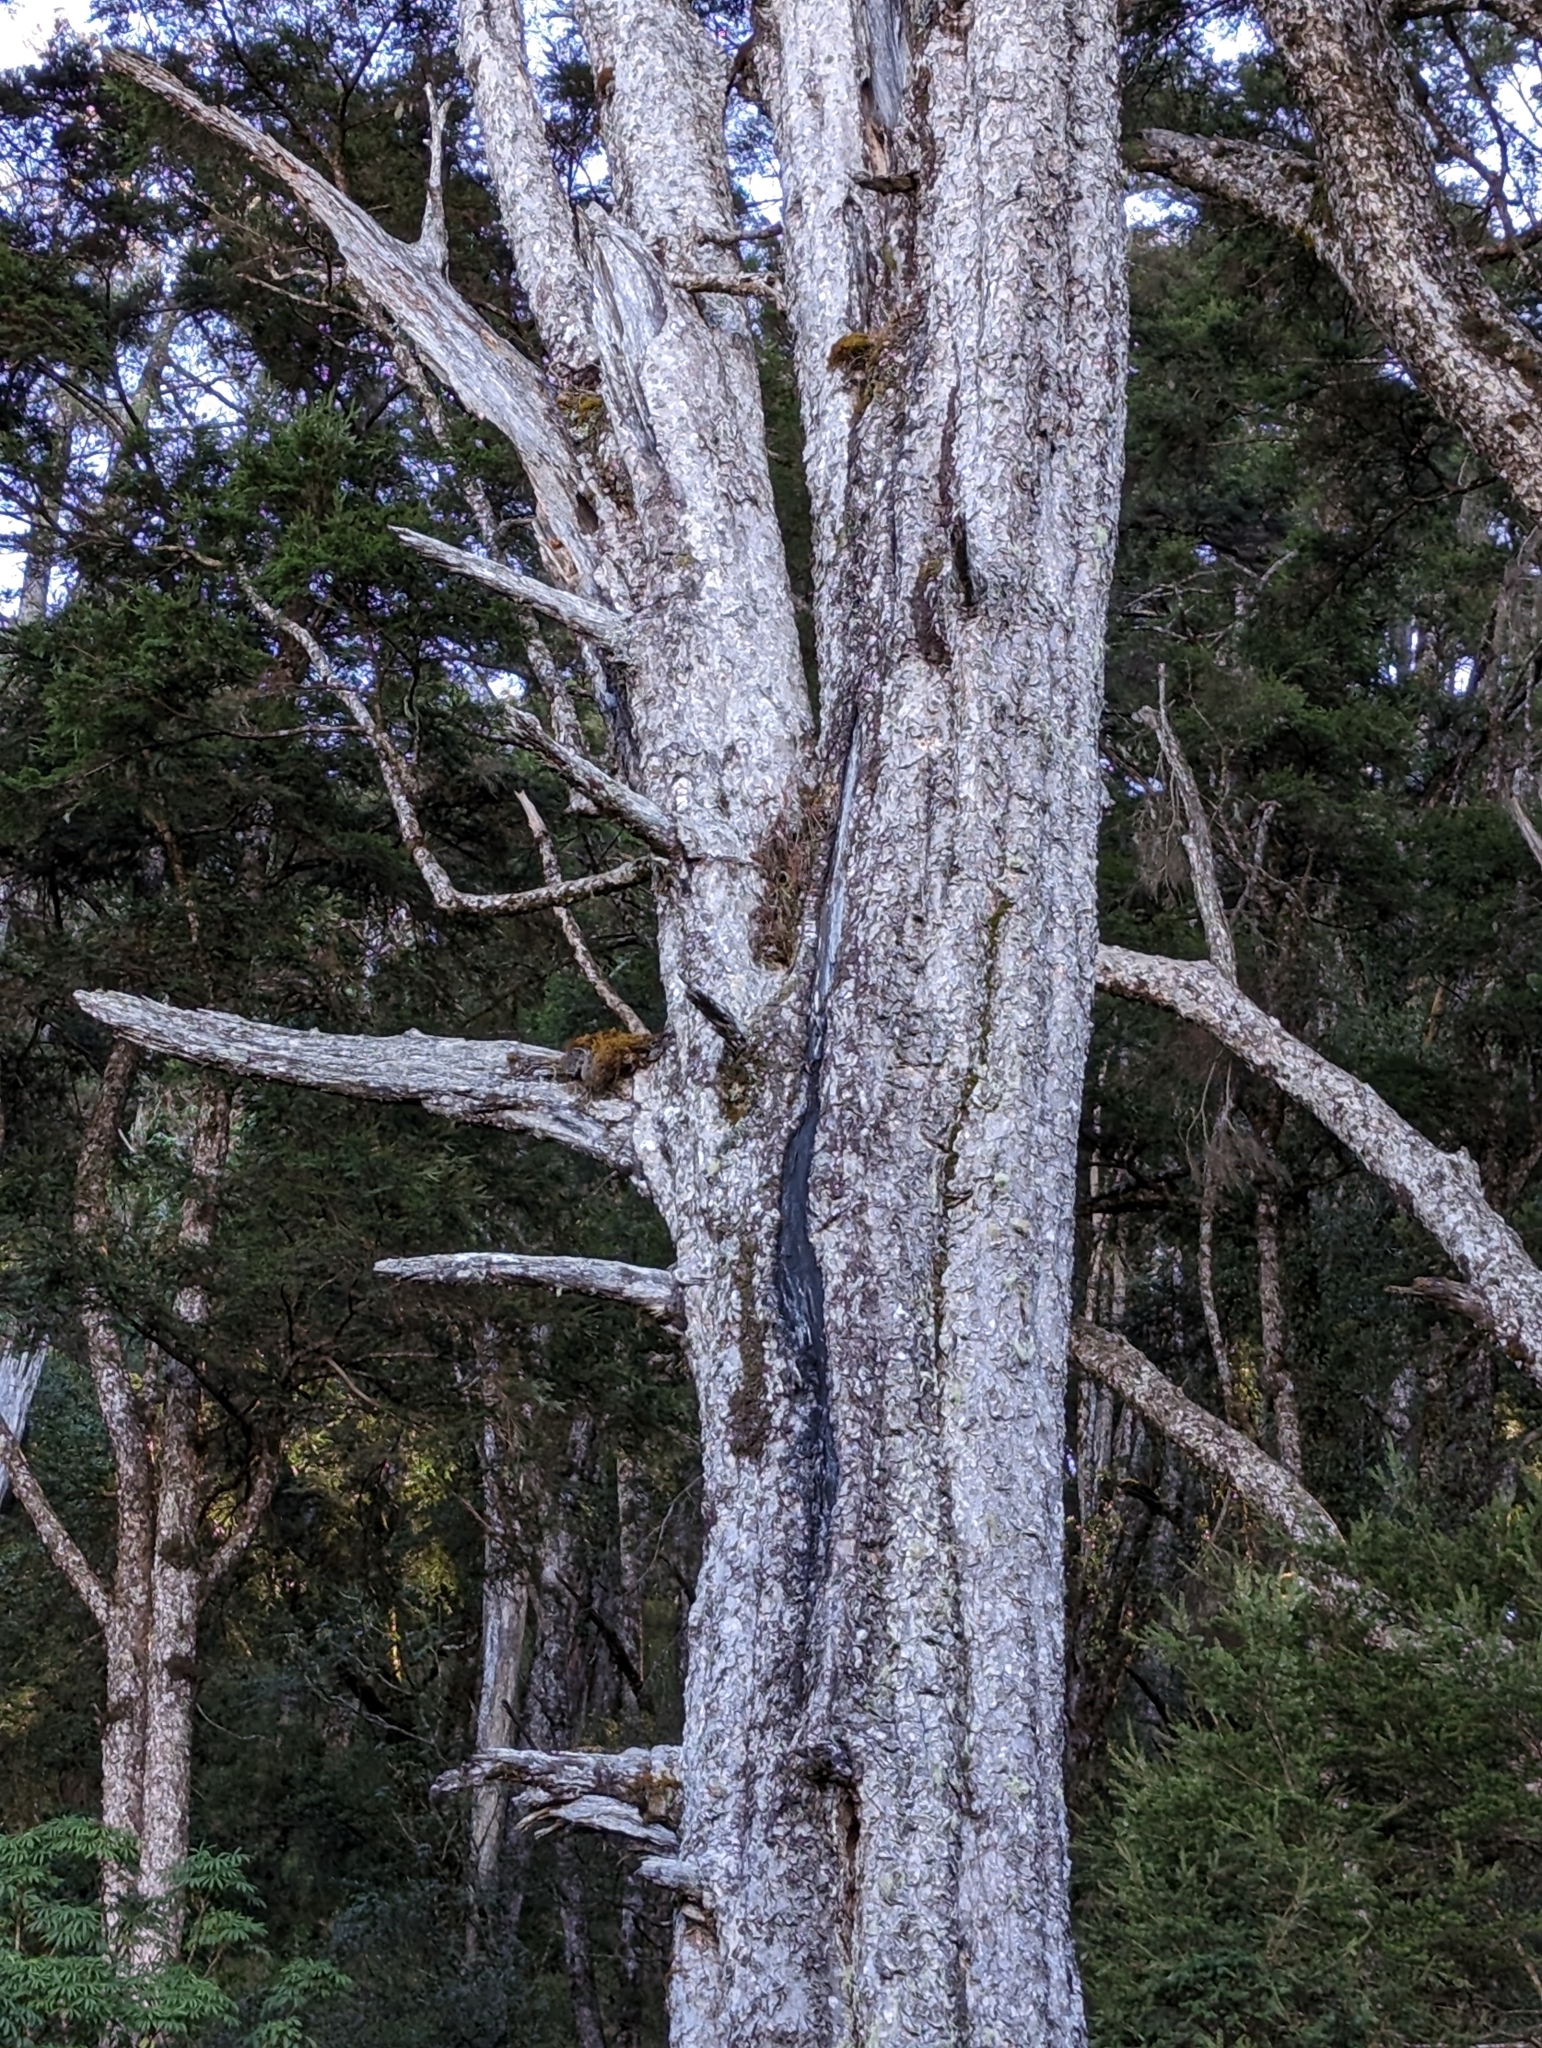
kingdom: Plantae
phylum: Tracheophyta
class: Pinopsida
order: Pinales
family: Pinaceae
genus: Tsuga
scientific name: Tsuga chinensis
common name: Chinese hemlock
